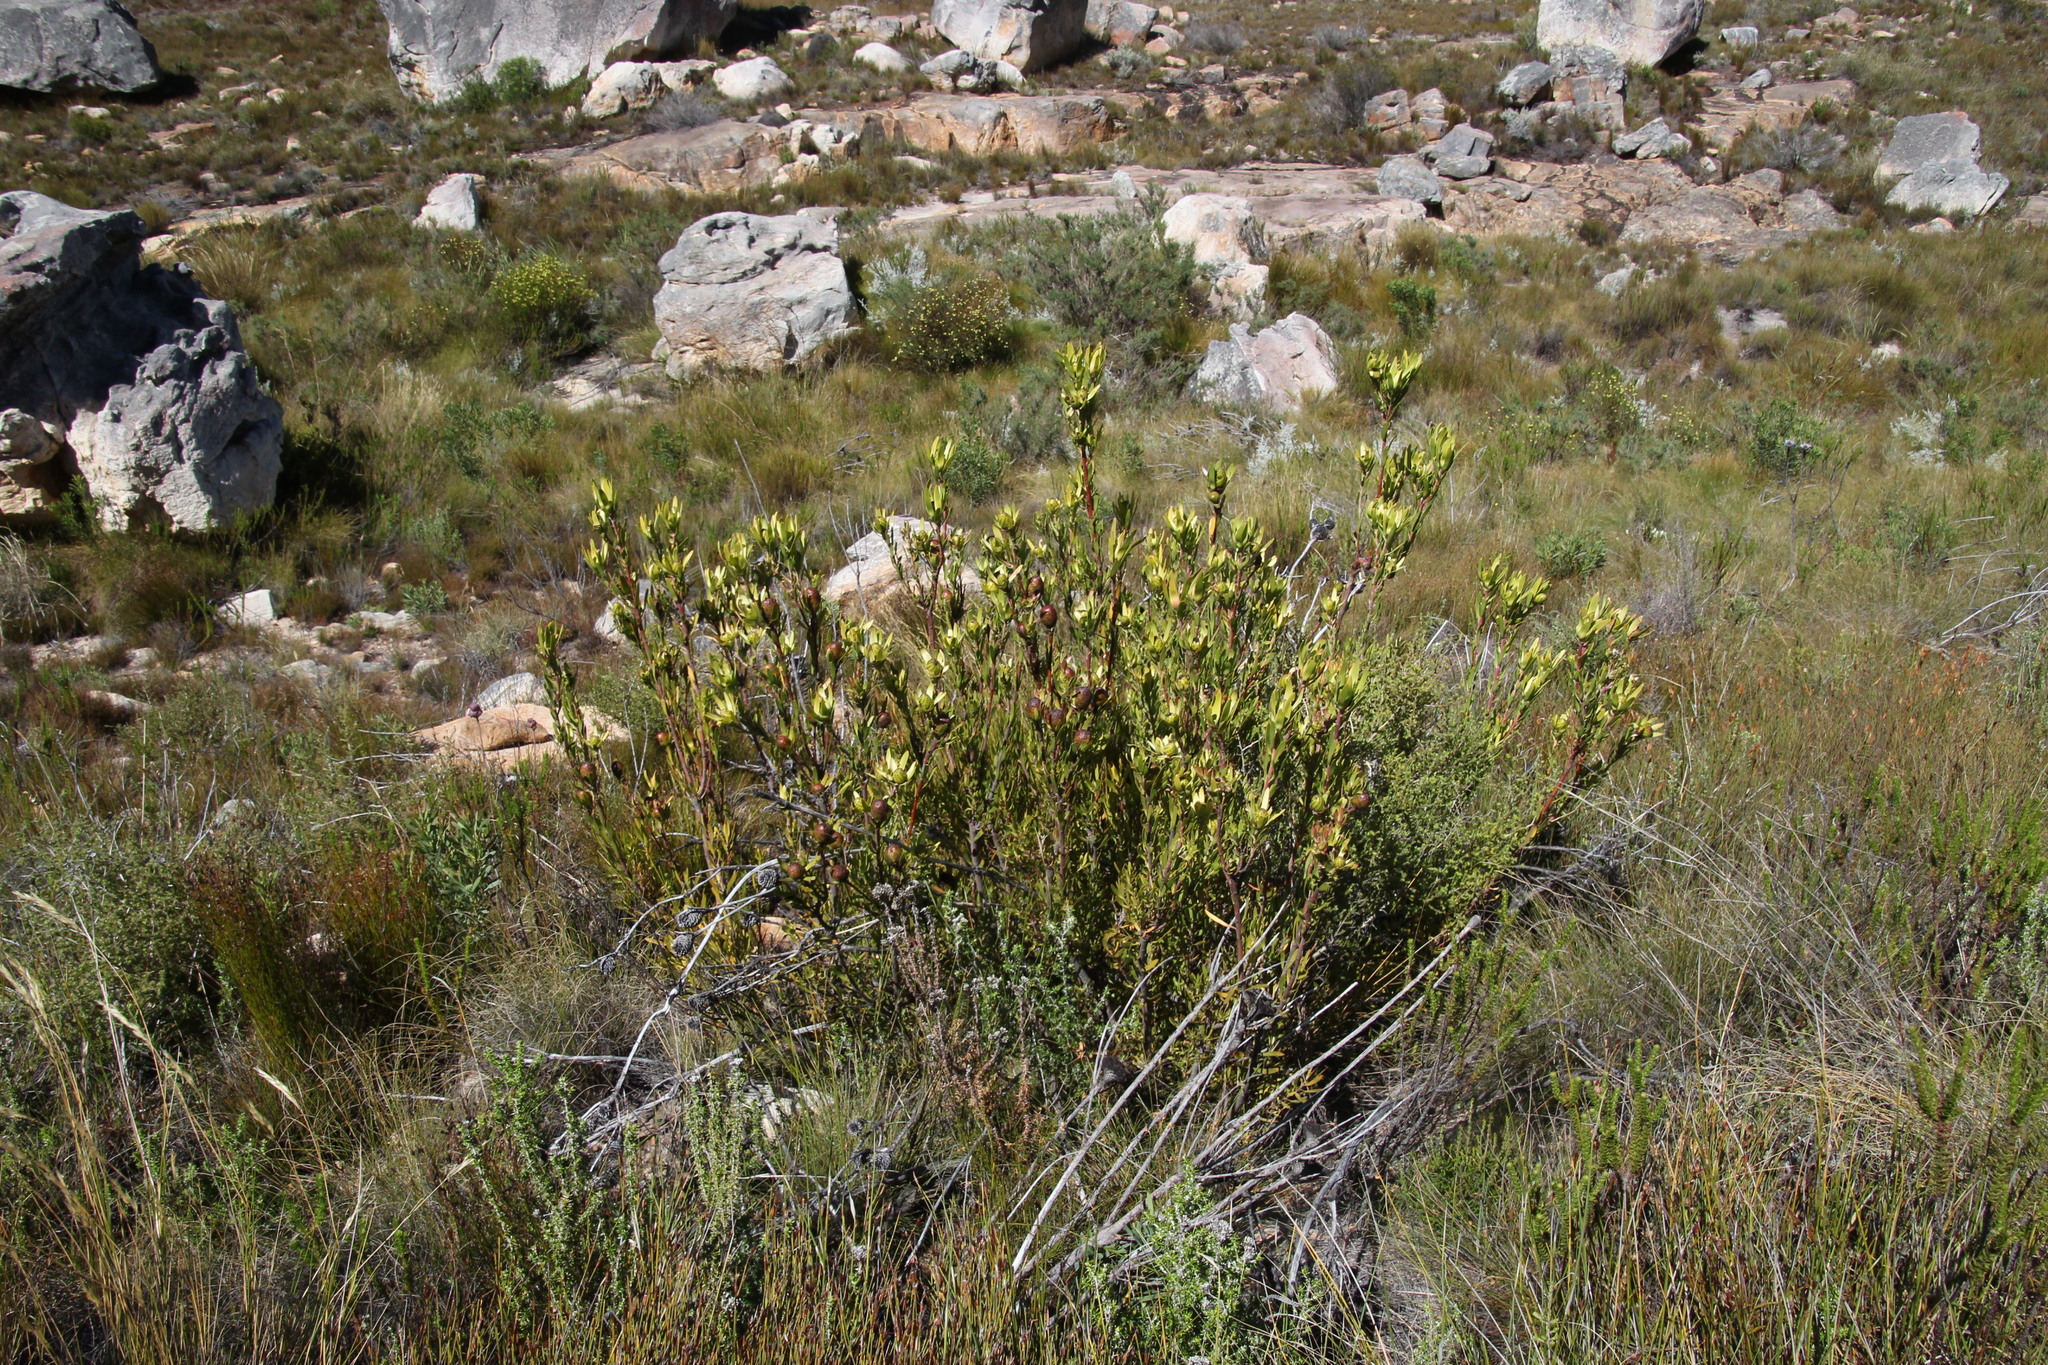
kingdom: Plantae
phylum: Tracheophyta
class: Magnoliopsida
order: Proteales
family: Proteaceae
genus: Leucadendron
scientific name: Leucadendron spissifolium
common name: Spear-leaf conebush
